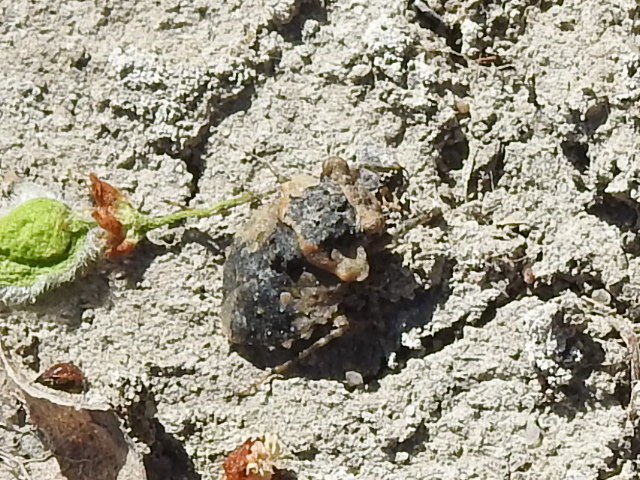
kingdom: Animalia
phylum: Arthropoda
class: Insecta
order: Hemiptera
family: Gelastocoridae
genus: Gelastocoris
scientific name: Gelastocoris oculatus
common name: Toad bug
